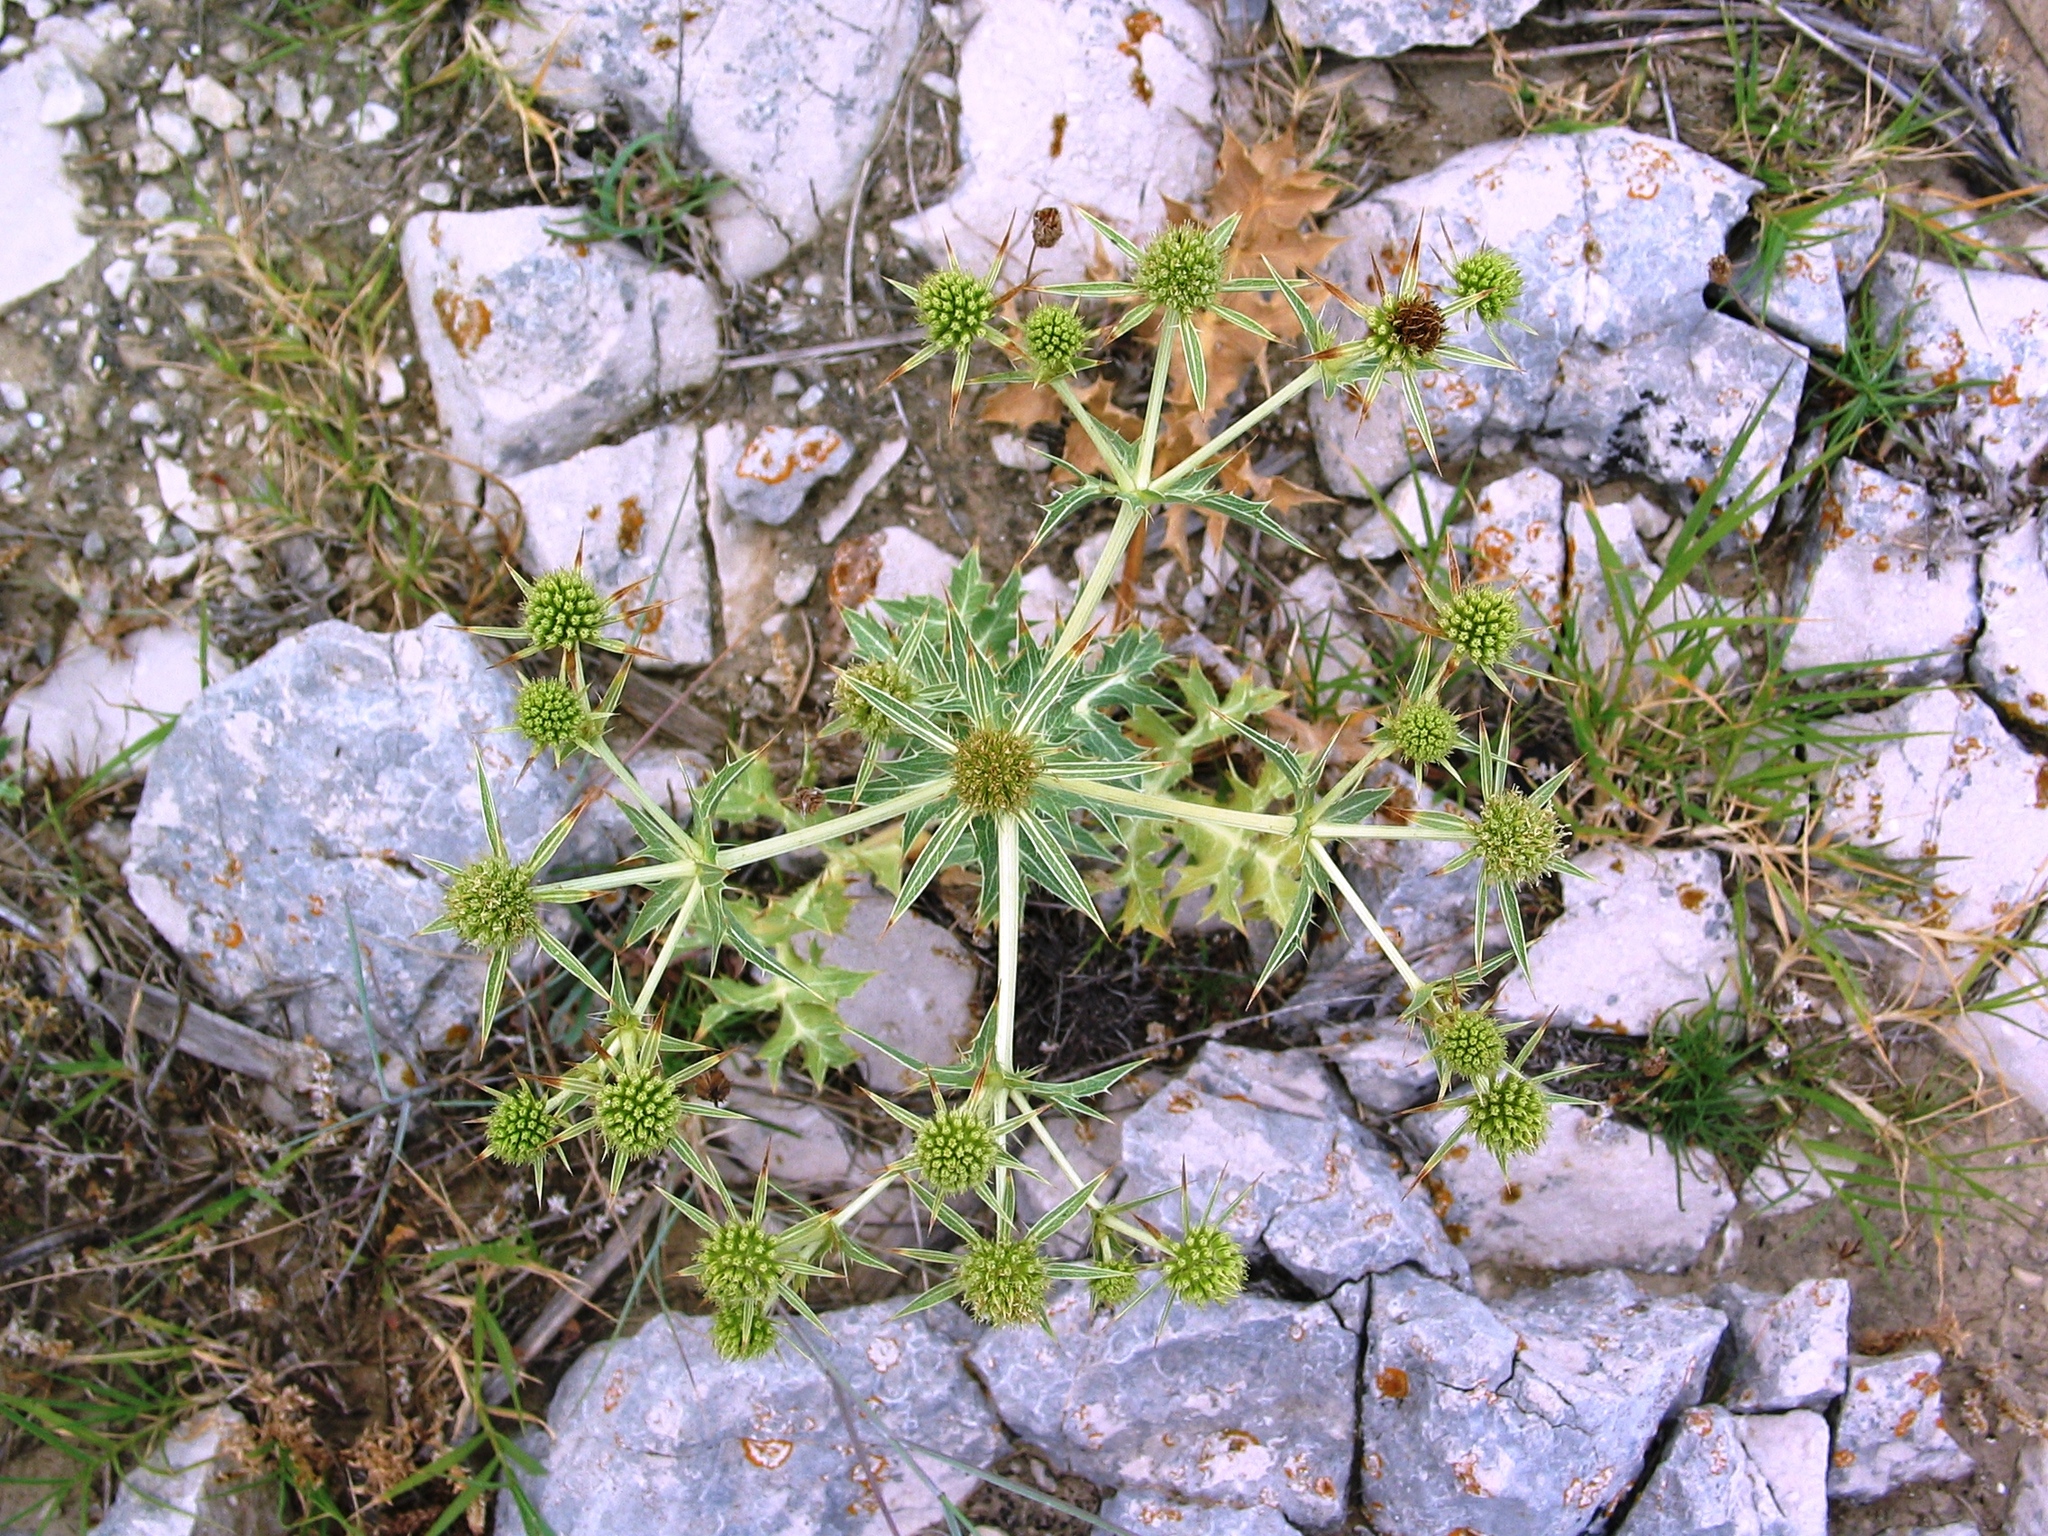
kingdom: Plantae
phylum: Tracheophyta
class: Magnoliopsida
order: Apiales
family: Apiaceae
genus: Eryngium
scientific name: Eryngium campestre
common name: Field eryngo
